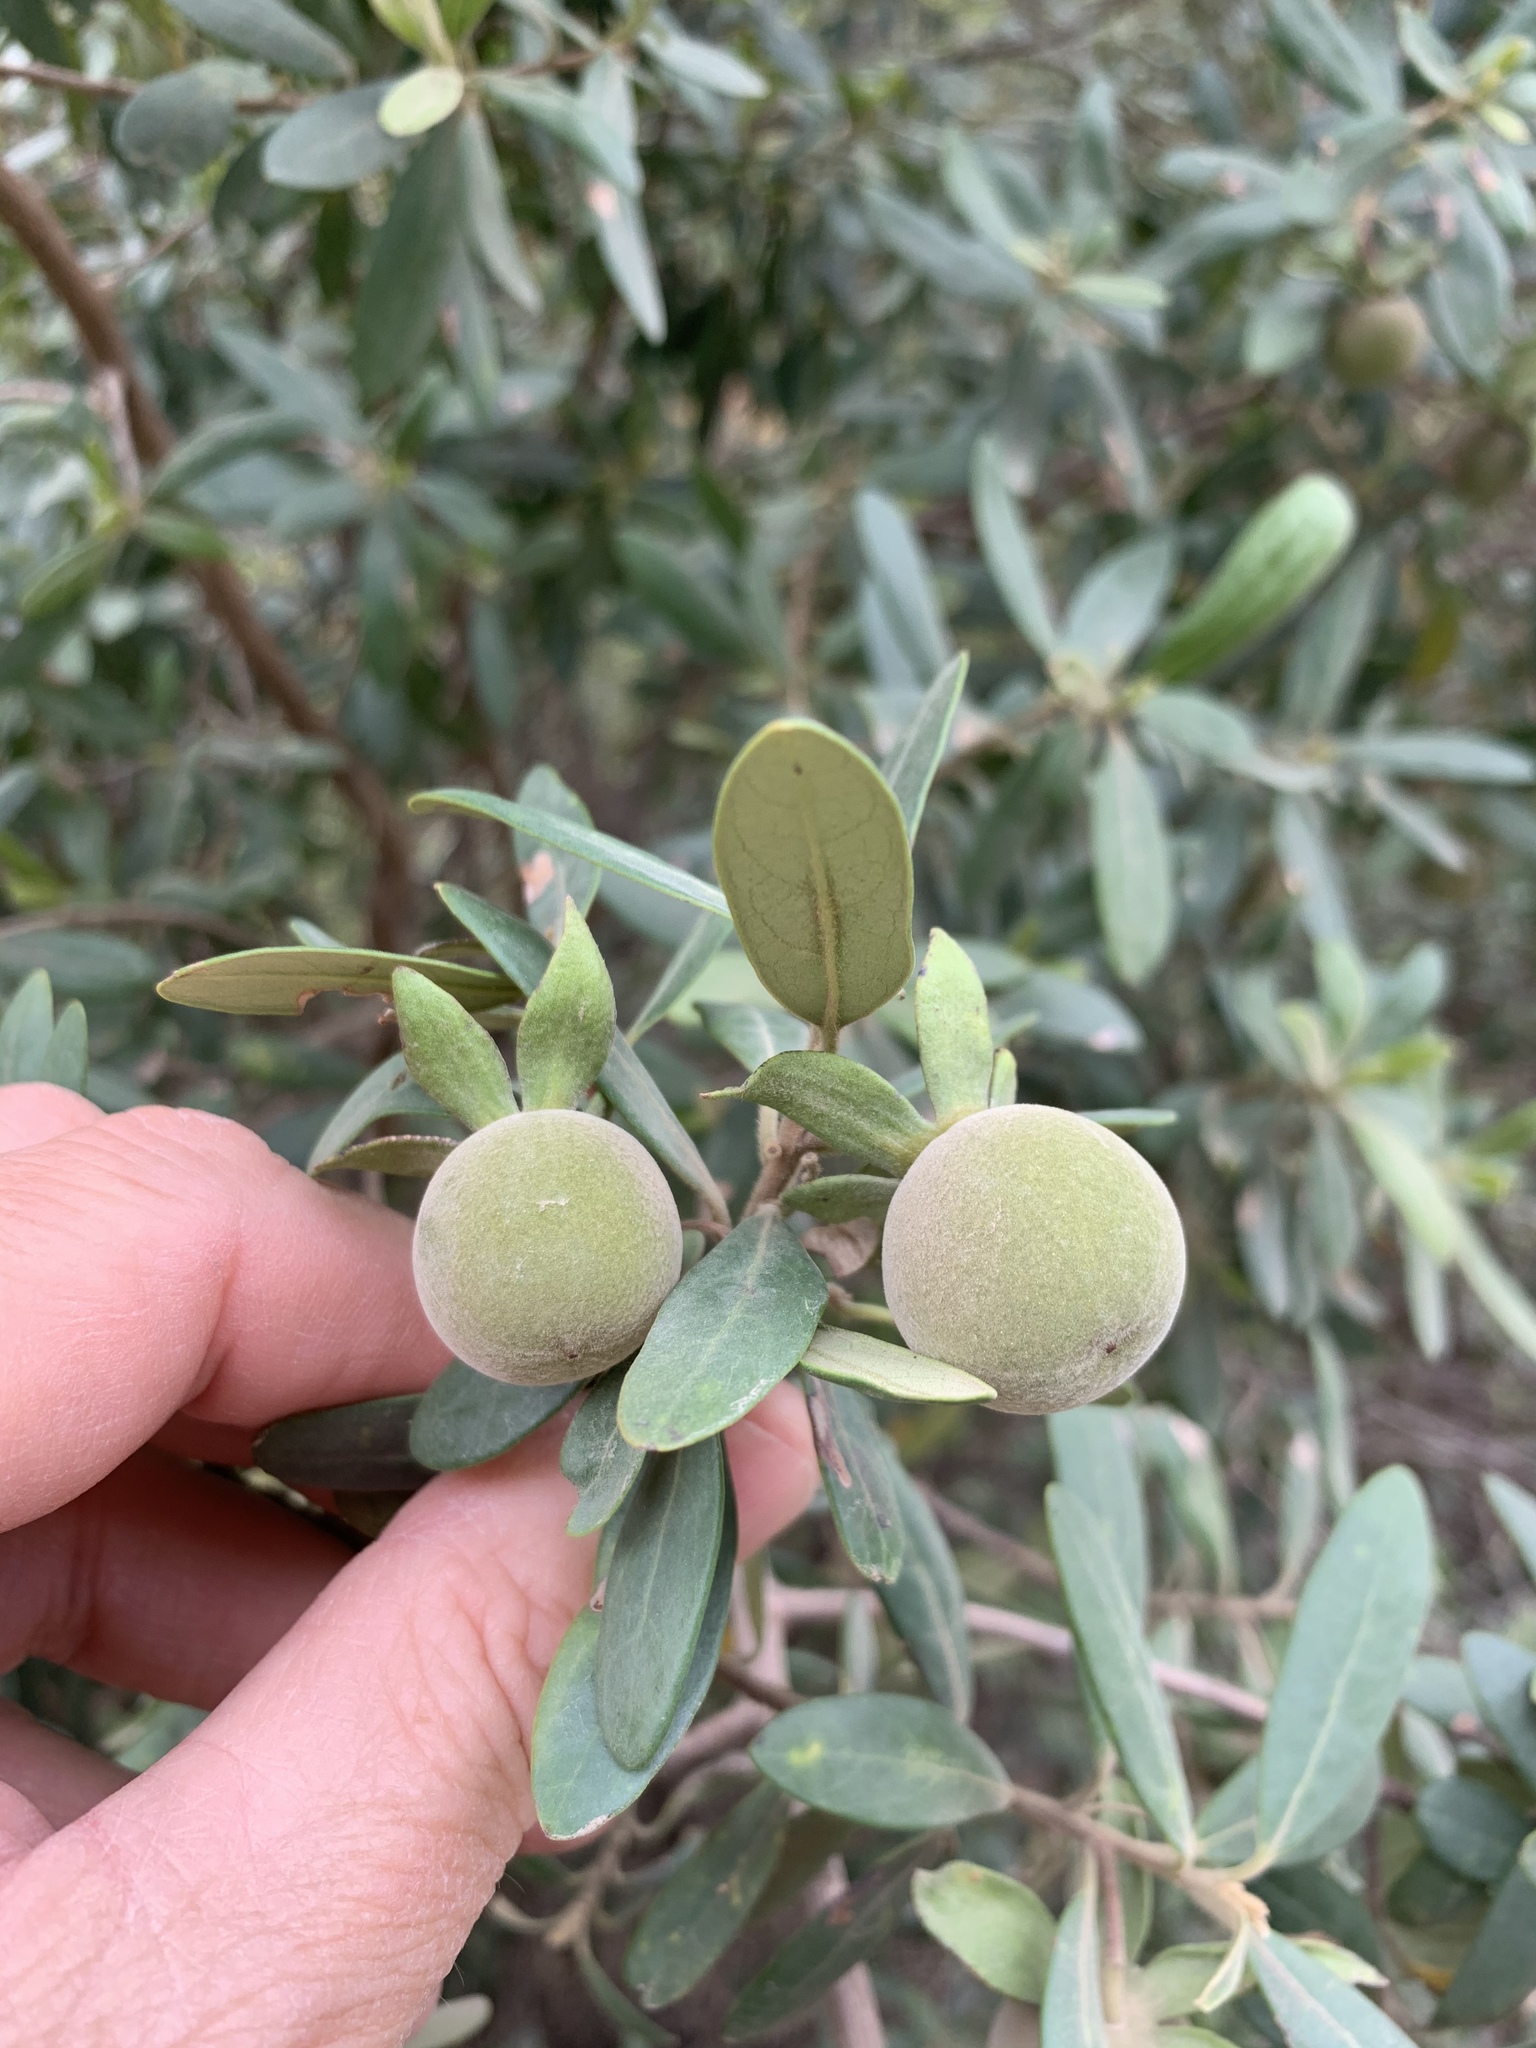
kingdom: Plantae
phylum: Tracheophyta
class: Magnoliopsida
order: Ericales
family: Ebenaceae
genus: Diospyros
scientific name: Diospyros dichrophylla
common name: Common star-apple
